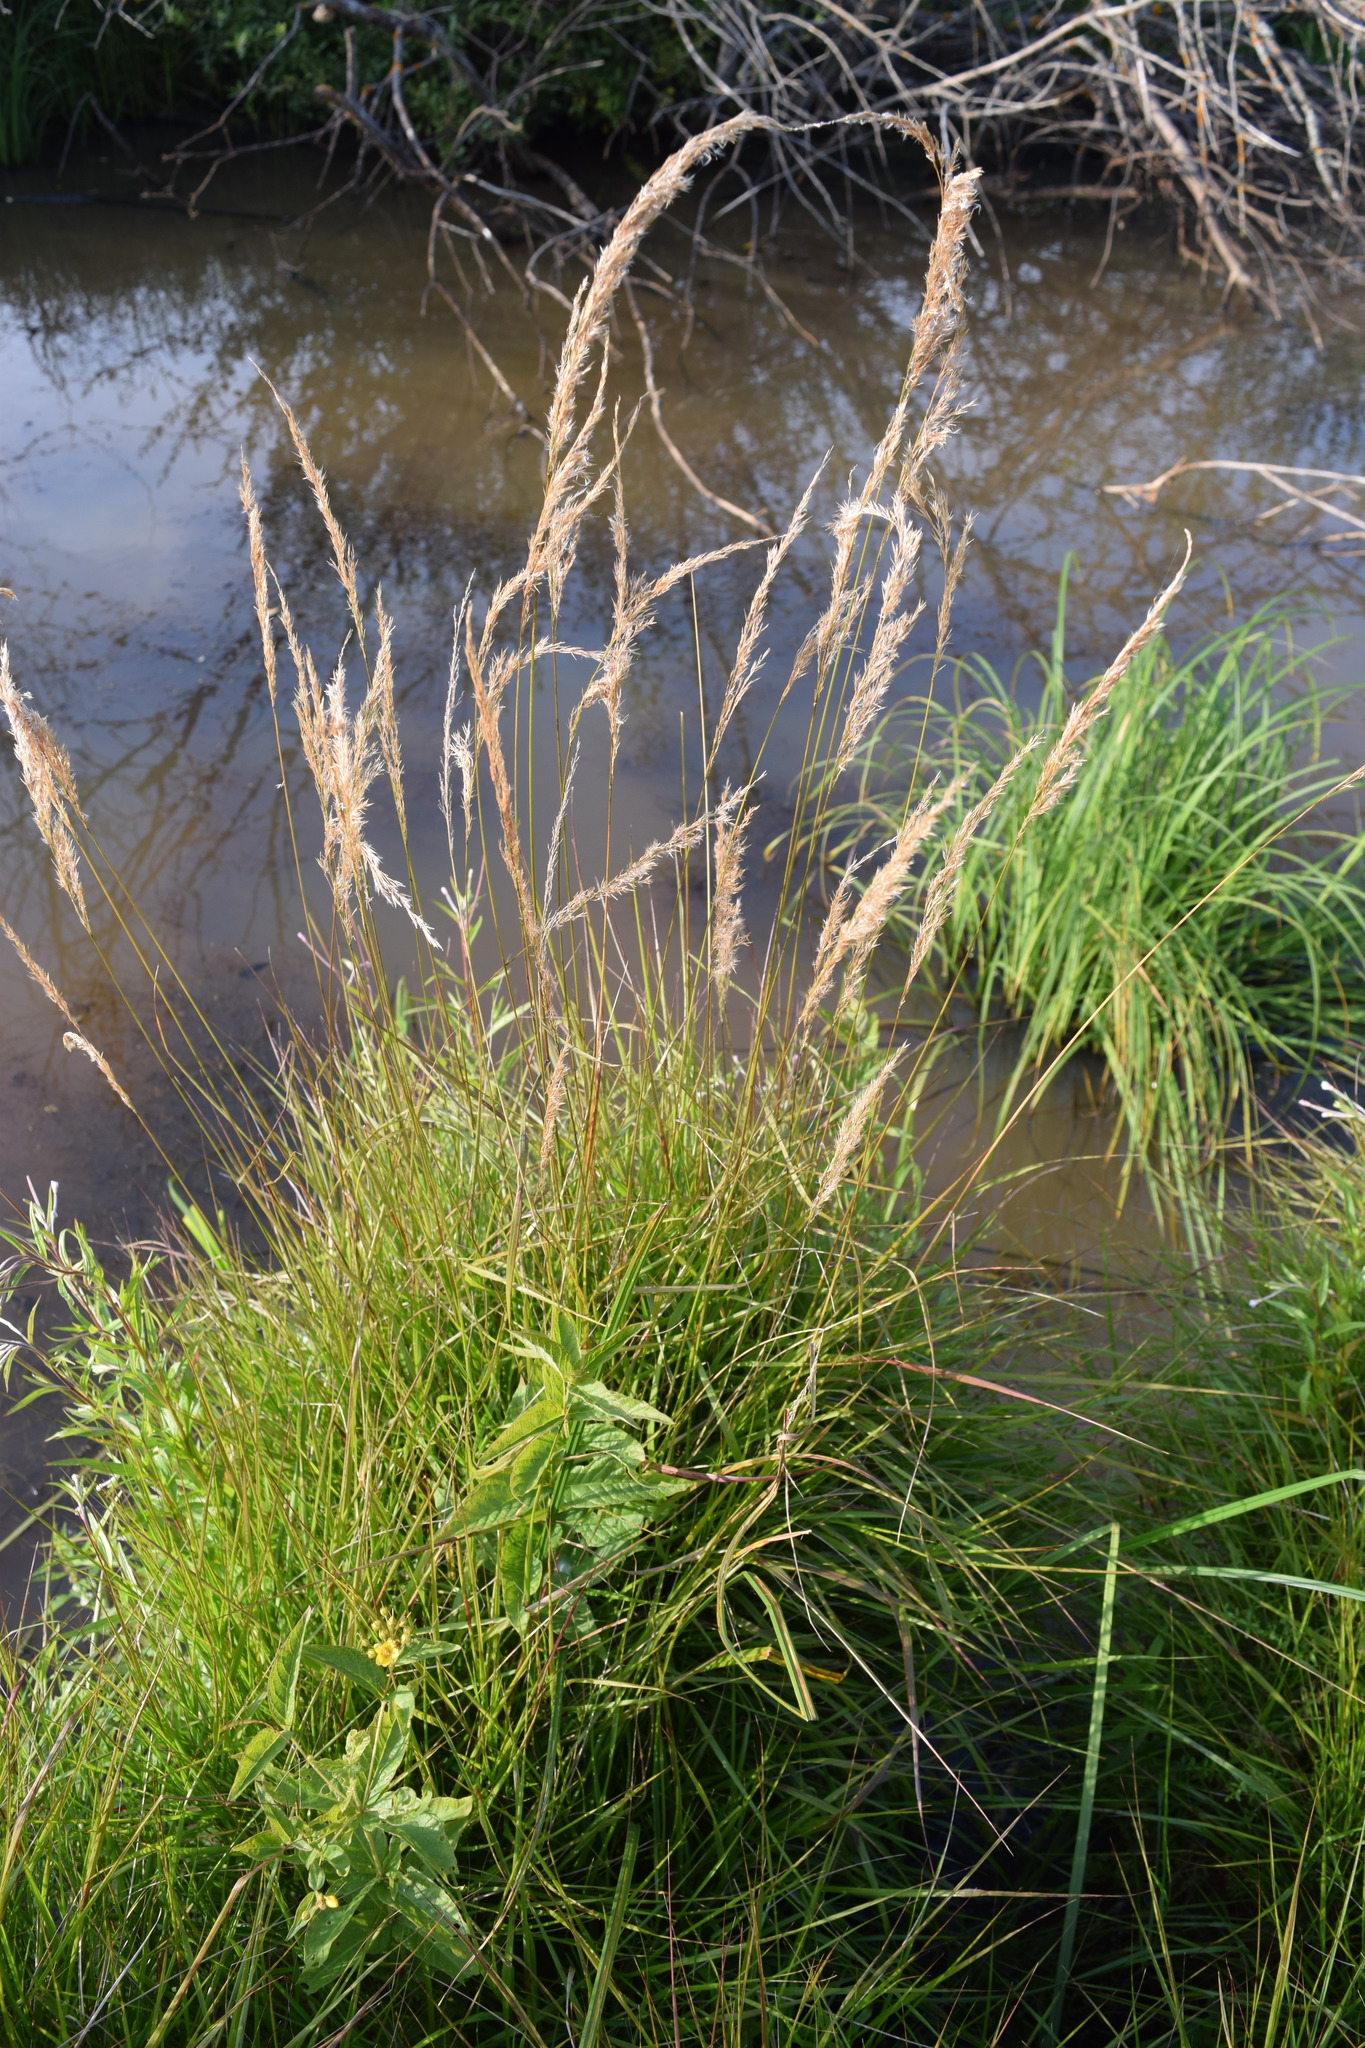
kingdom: Plantae
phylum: Tracheophyta
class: Liliopsida
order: Poales
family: Poaceae
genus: Calamagrostis
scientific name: Calamagrostis canescens
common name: Purple small-reed
